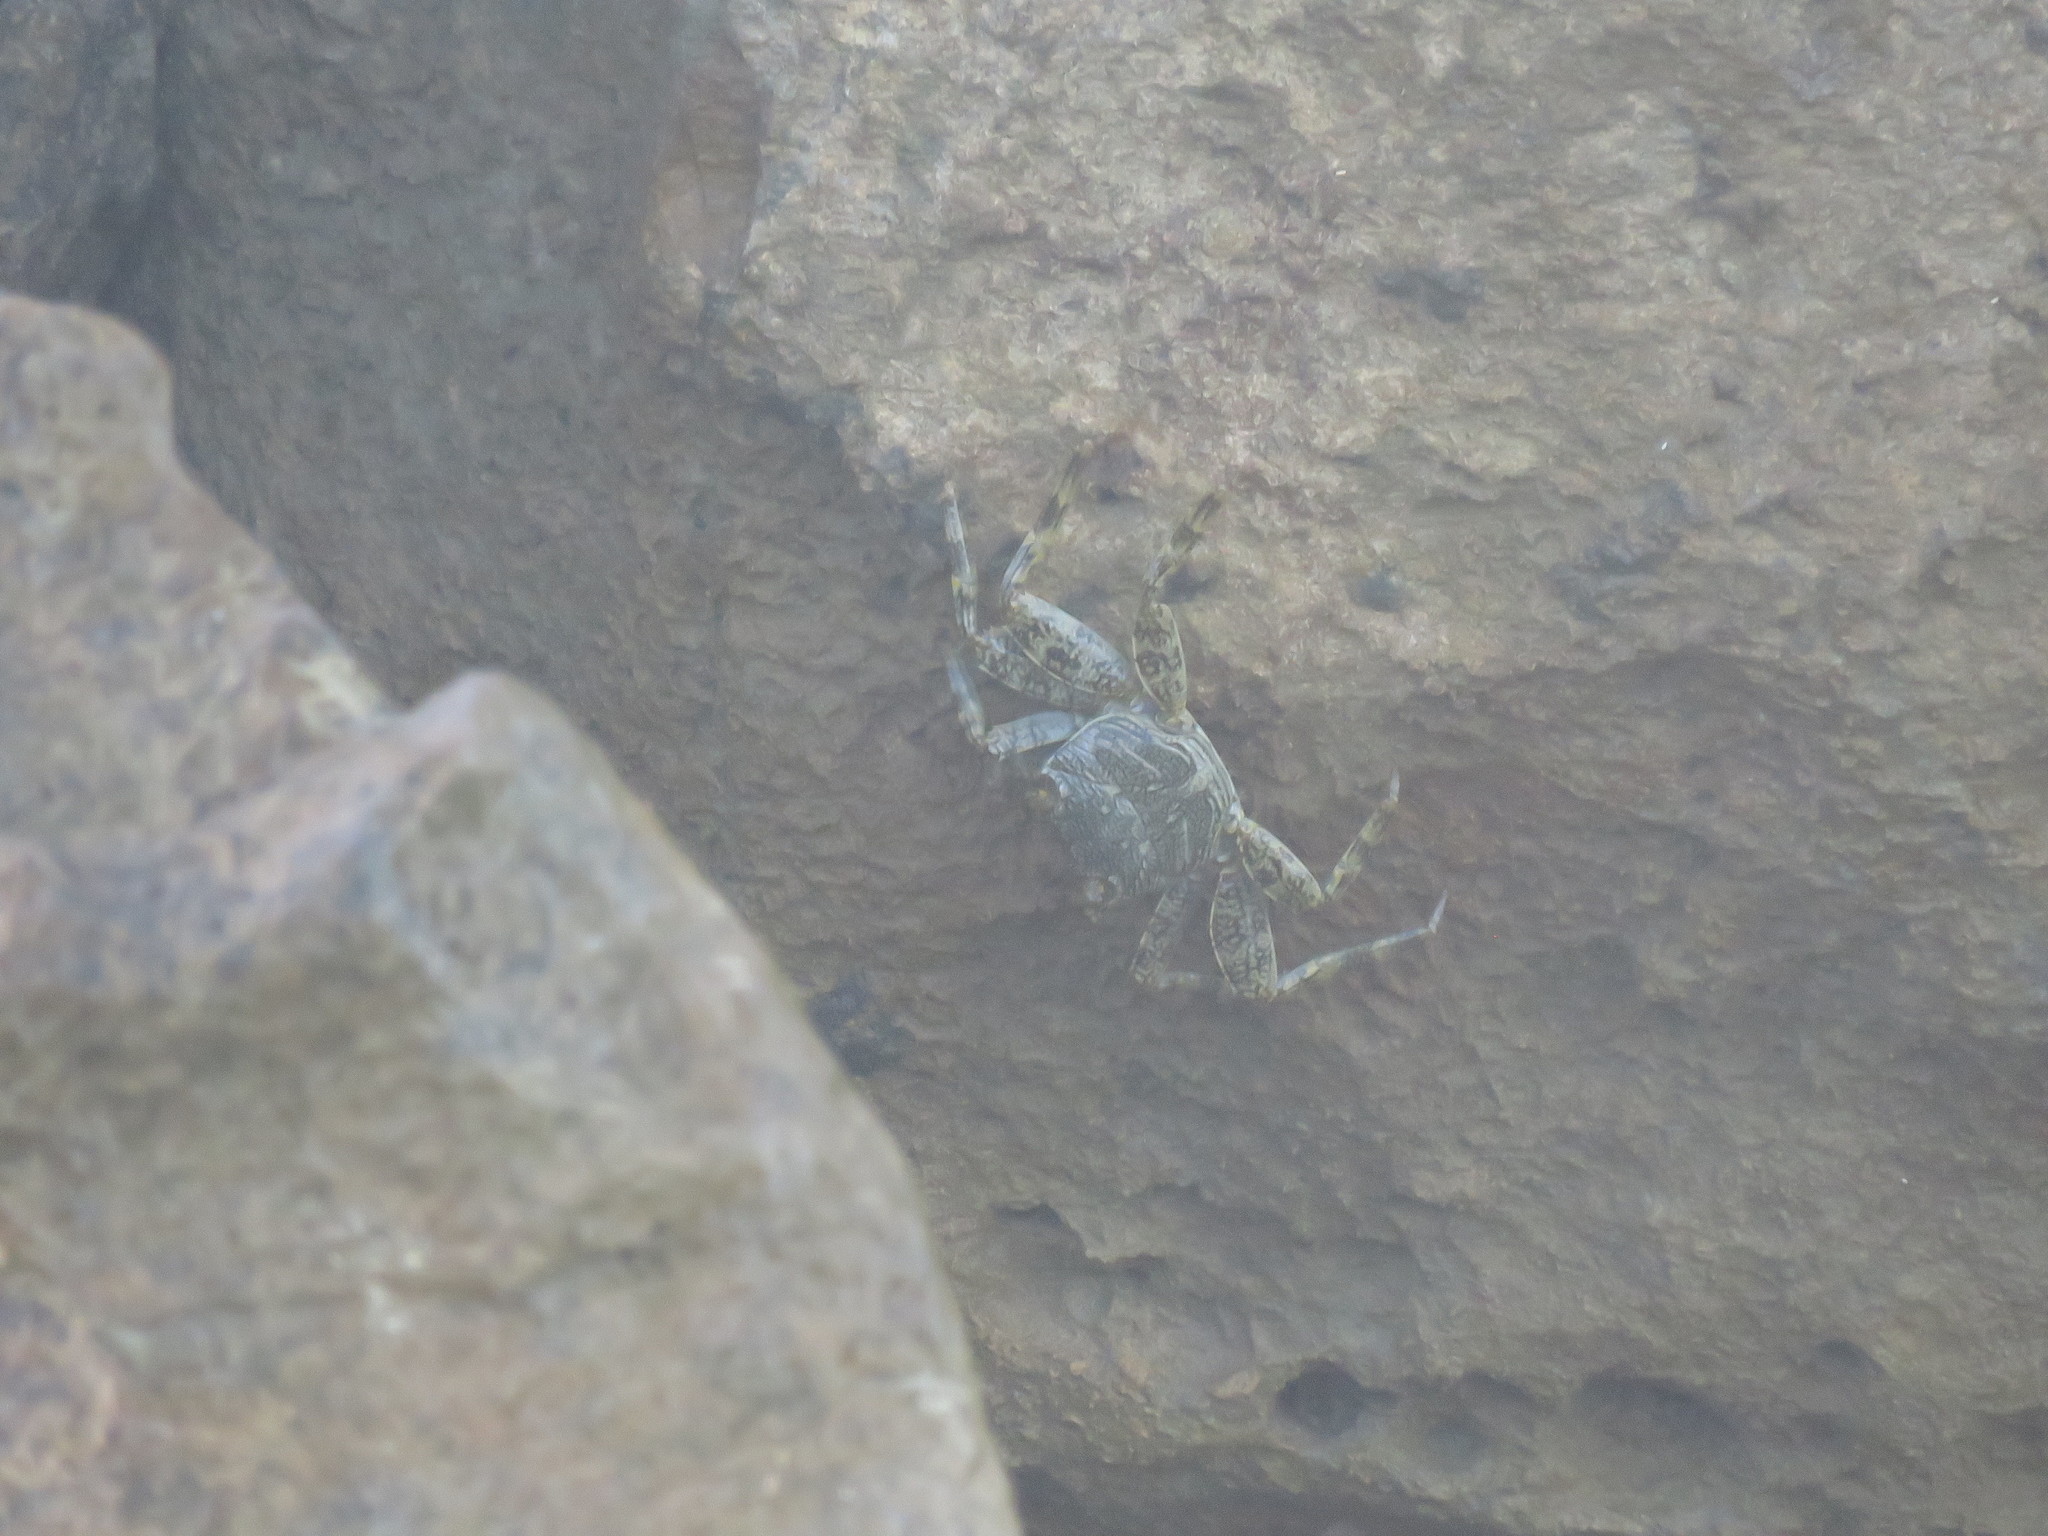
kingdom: Animalia
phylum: Arthropoda
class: Malacostraca
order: Decapoda
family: Grapsidae
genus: Grapsus
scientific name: Grapsus grapsus
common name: Sally lightfoot
